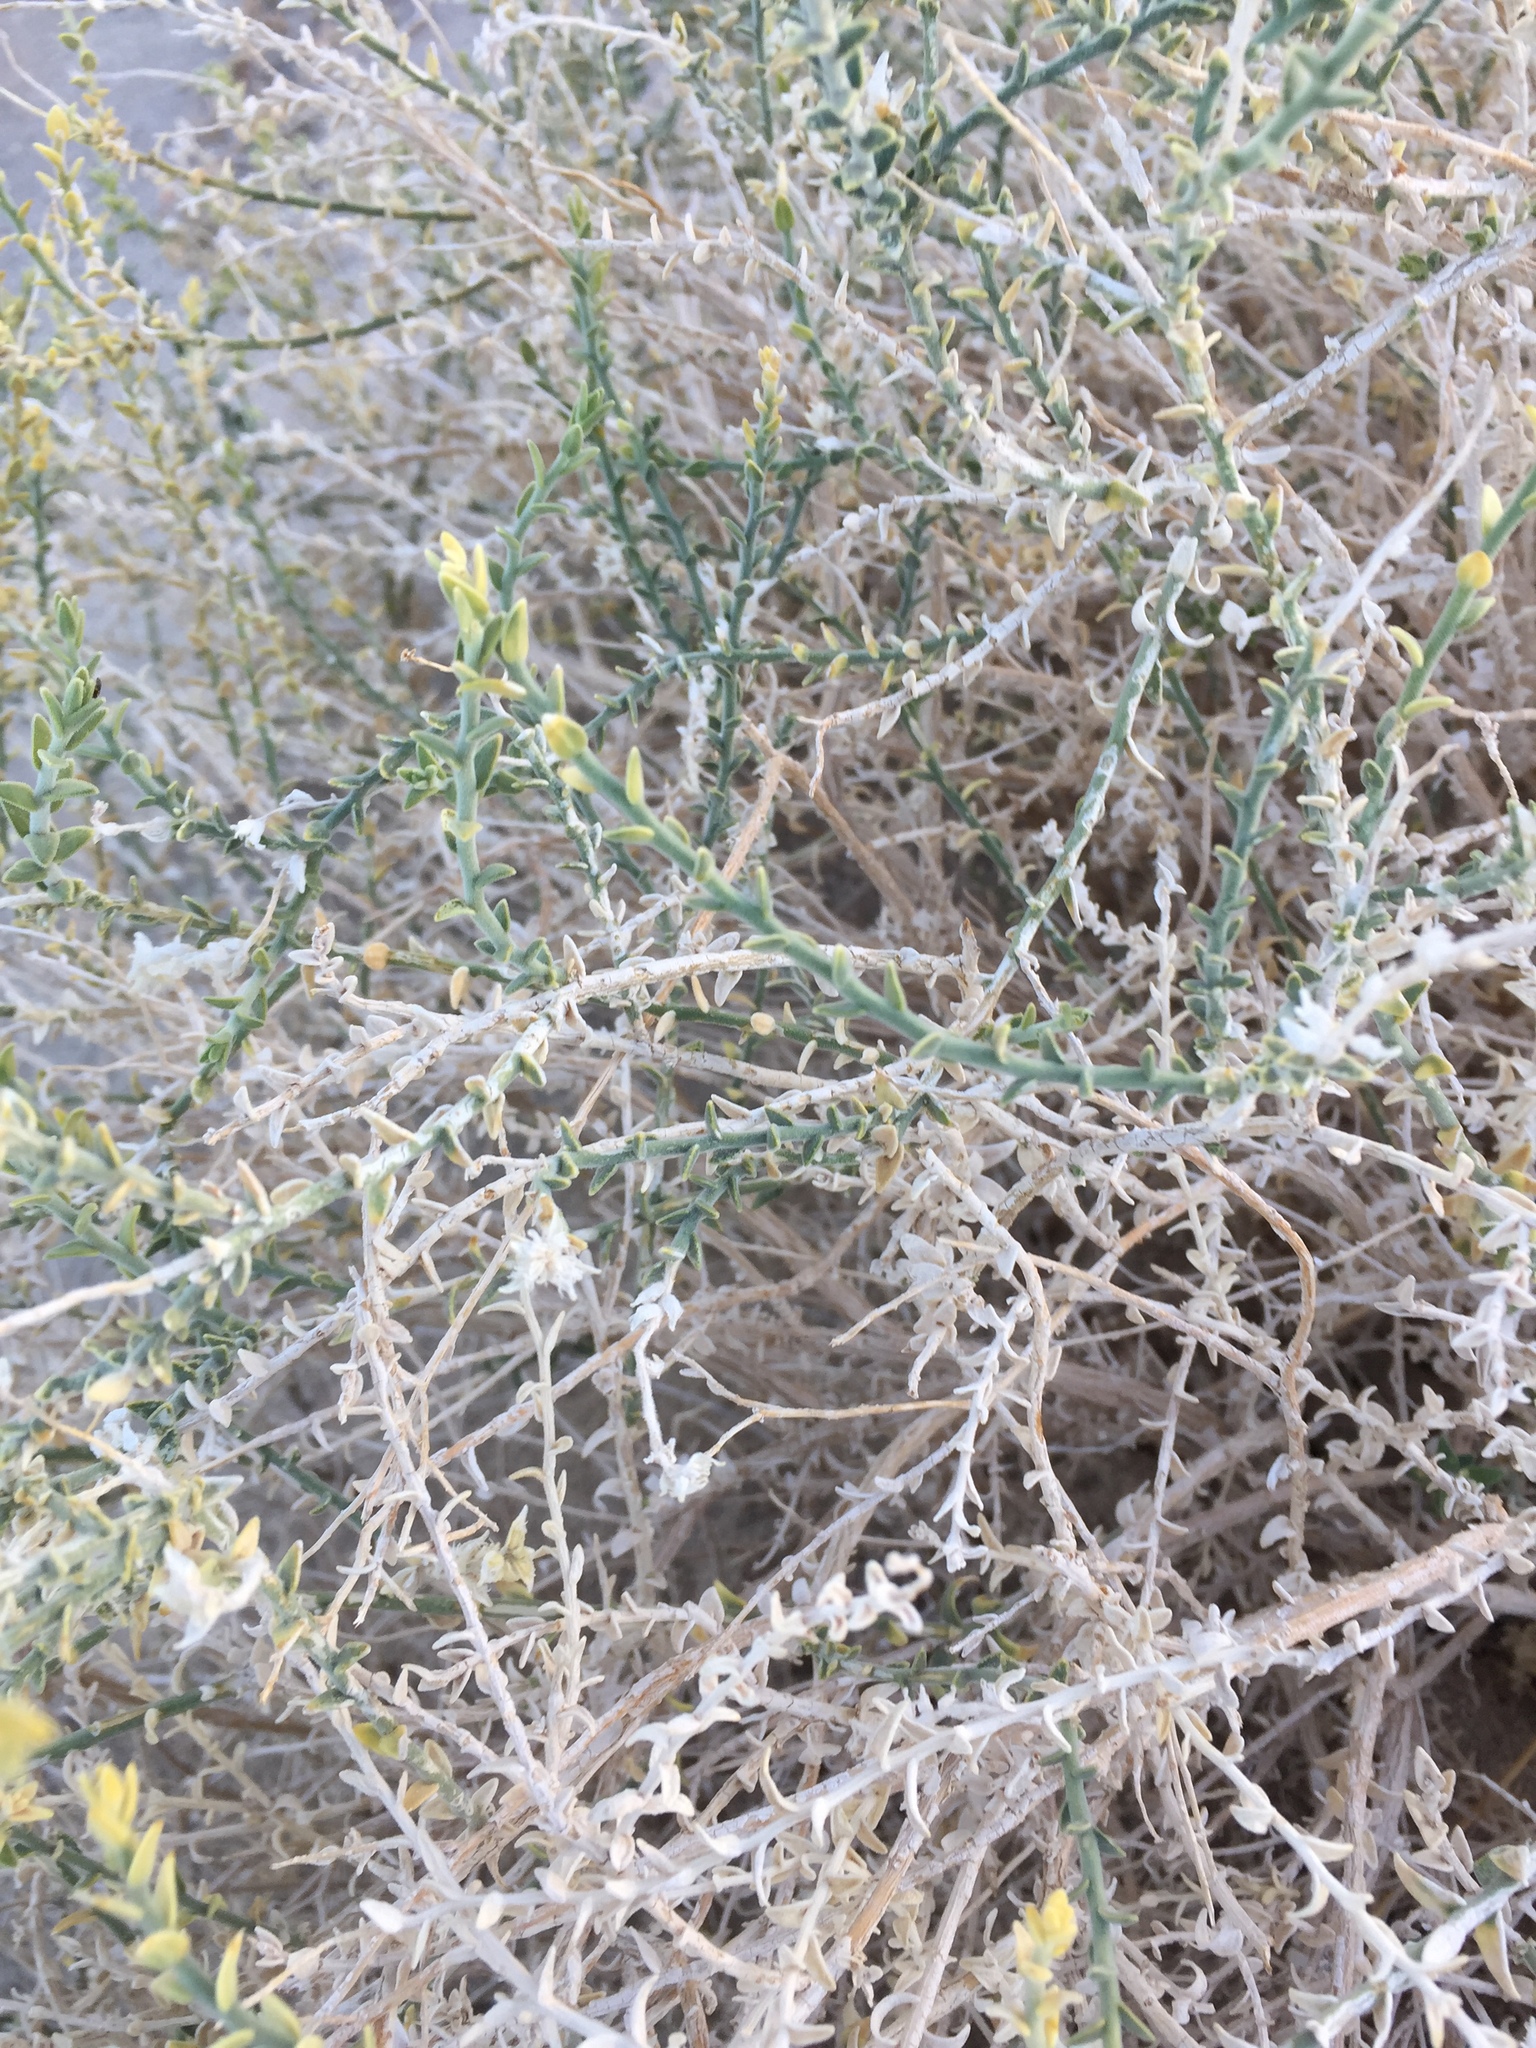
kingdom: Plantae
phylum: Tracheophyta
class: Magnoliopsida
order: Cornales
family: Loasaceae
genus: Petalonyx
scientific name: Petalonyx thurberi
